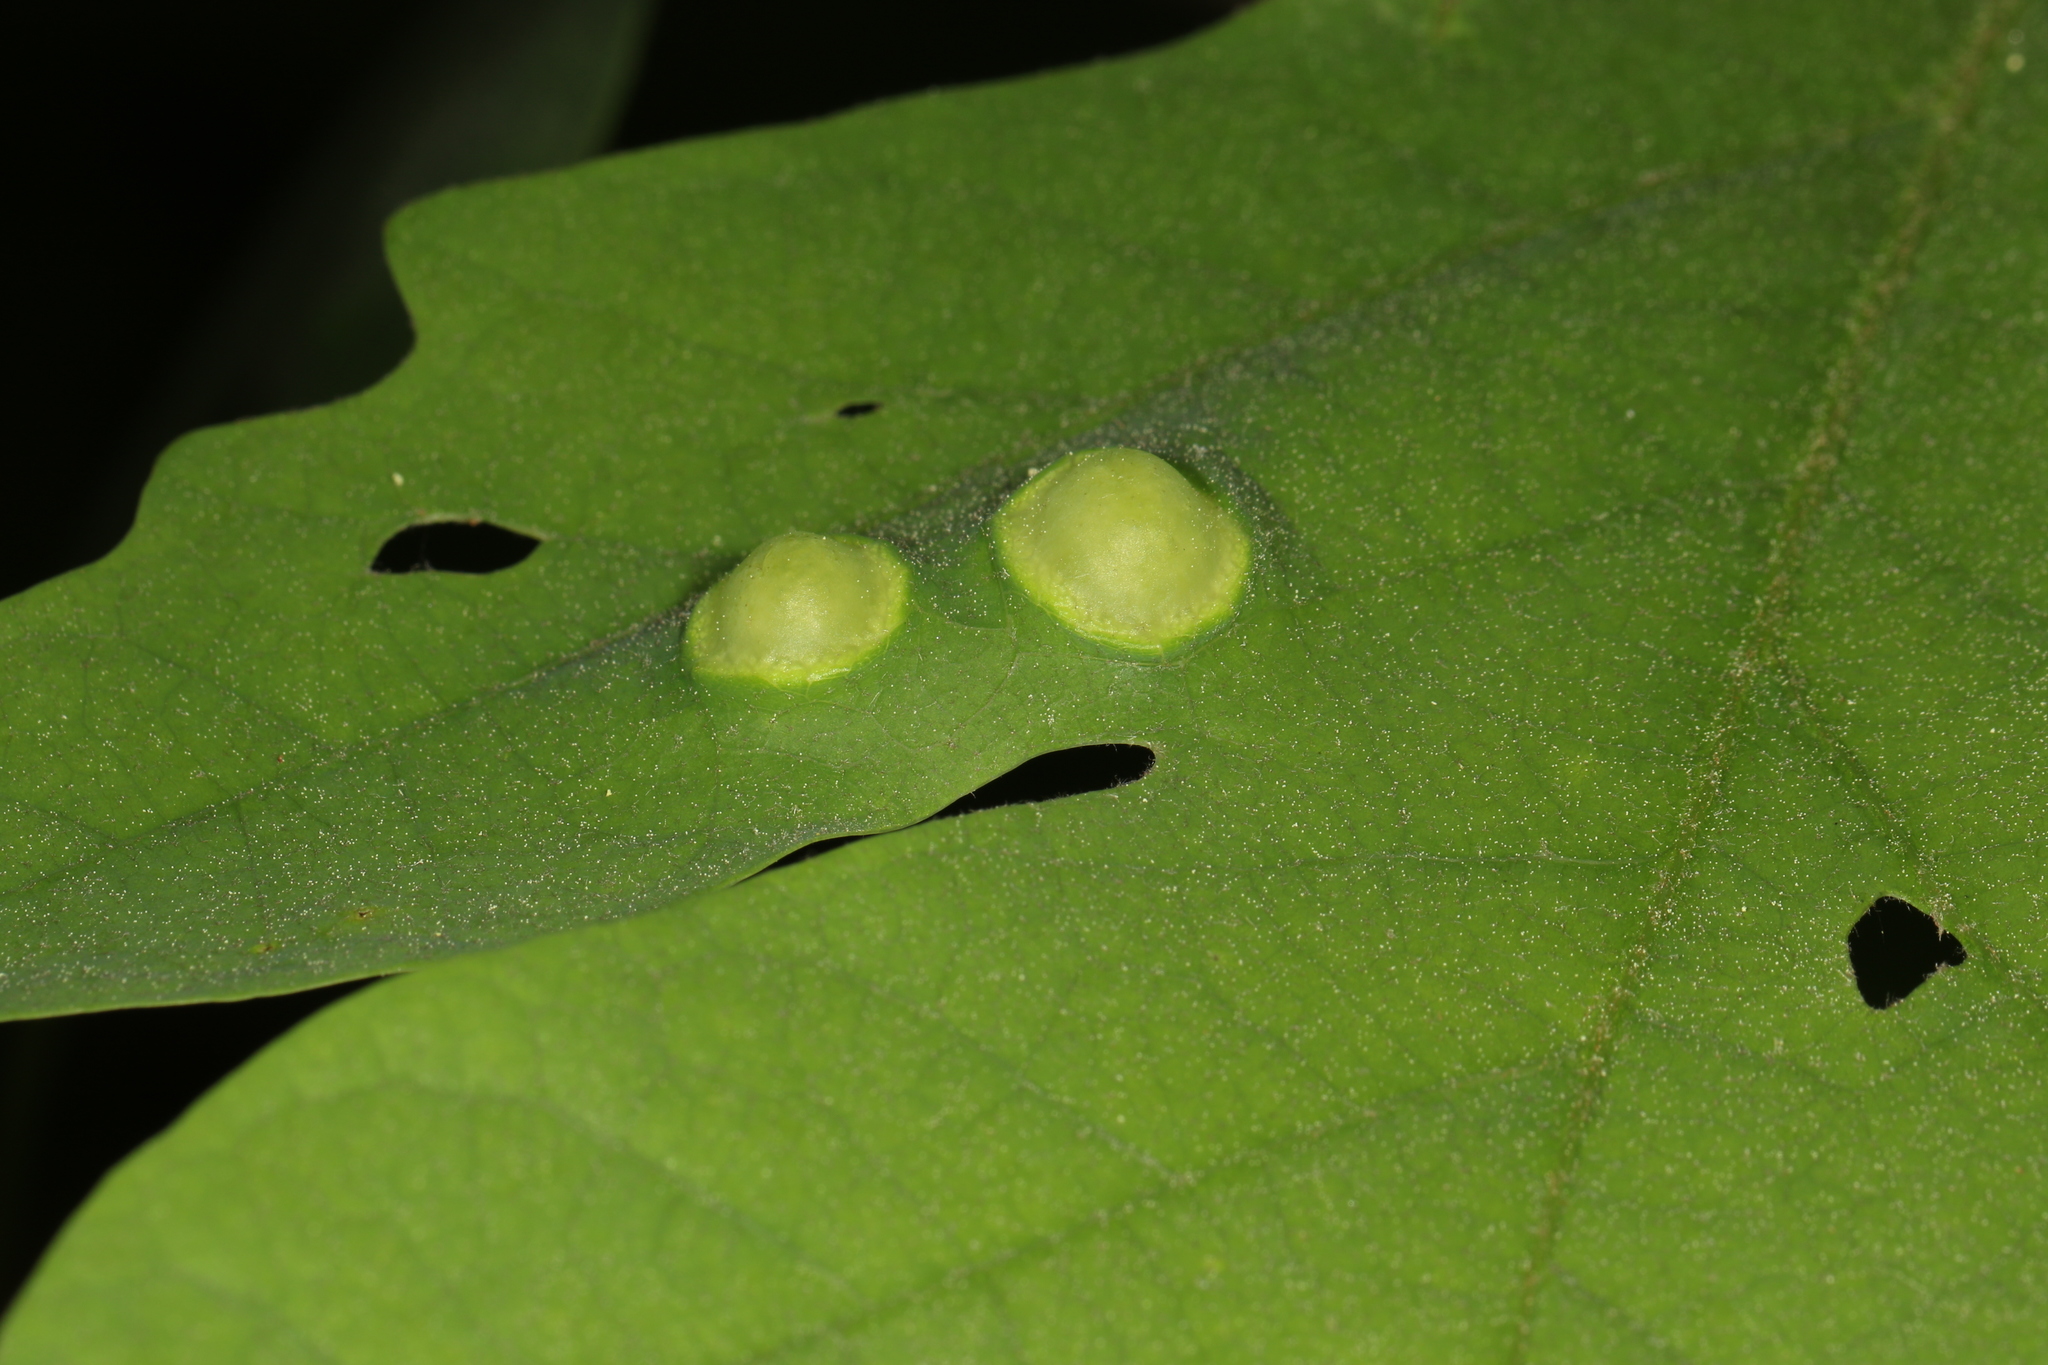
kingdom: Animalia
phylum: Arthropoda
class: Insecta
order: Hymenoptera
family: Cynipidae
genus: Callirhytis
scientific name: Callirhytis
